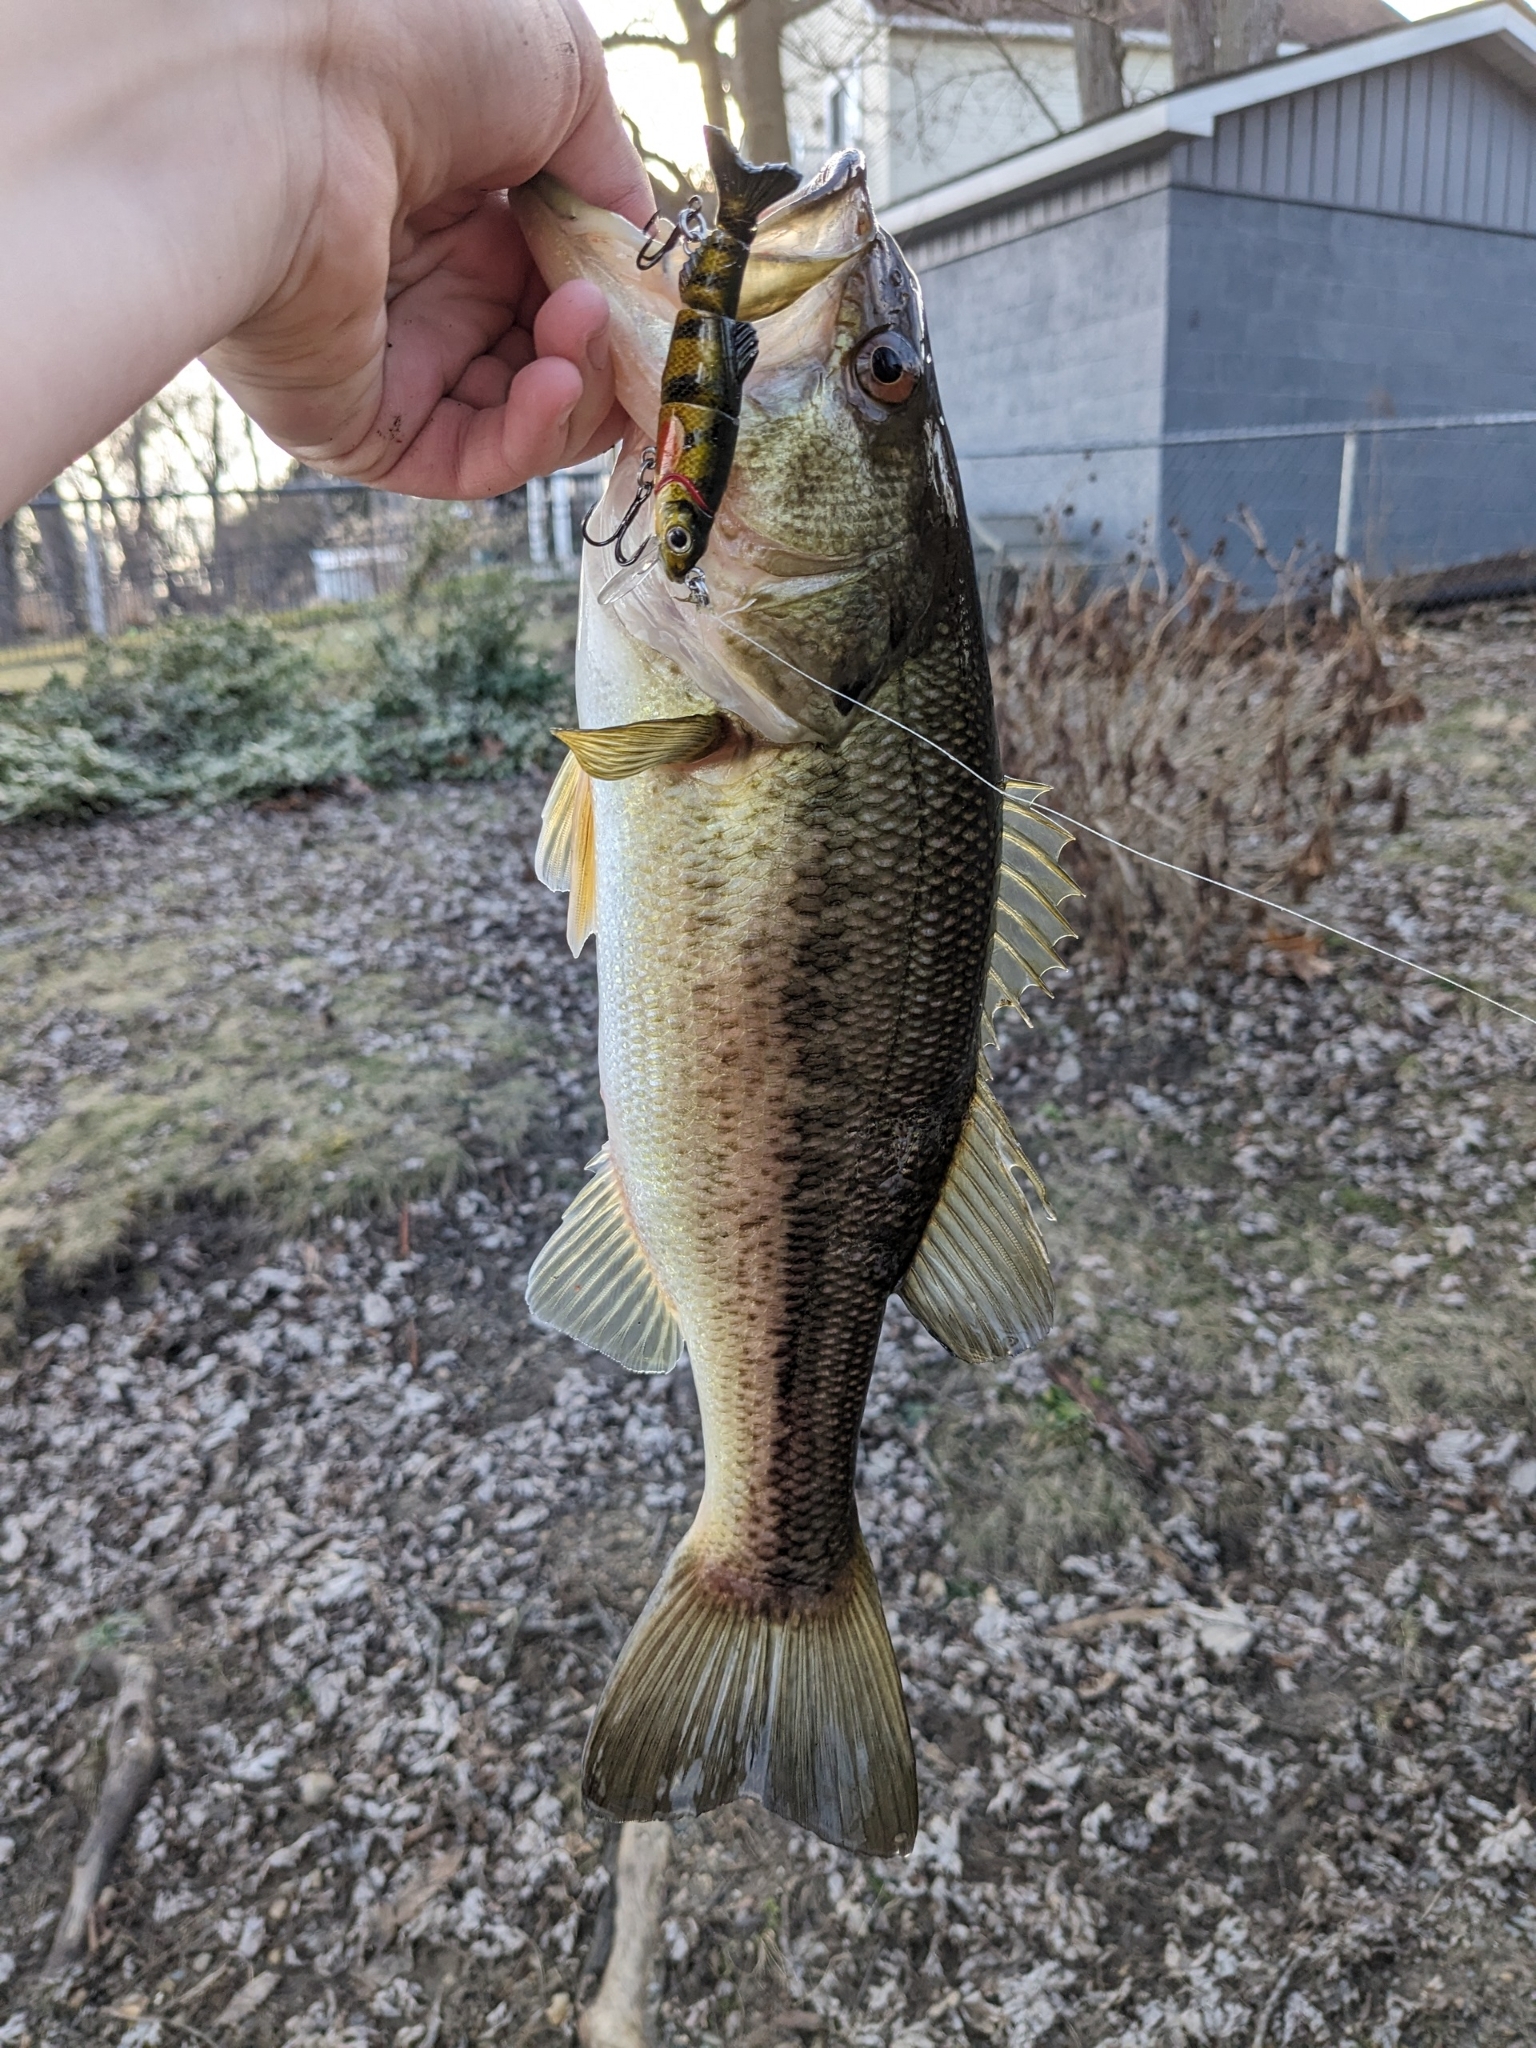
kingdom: Animalia
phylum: Chordata
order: Perciformes
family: Centrarchidae
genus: Micropterus
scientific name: Micropterus
